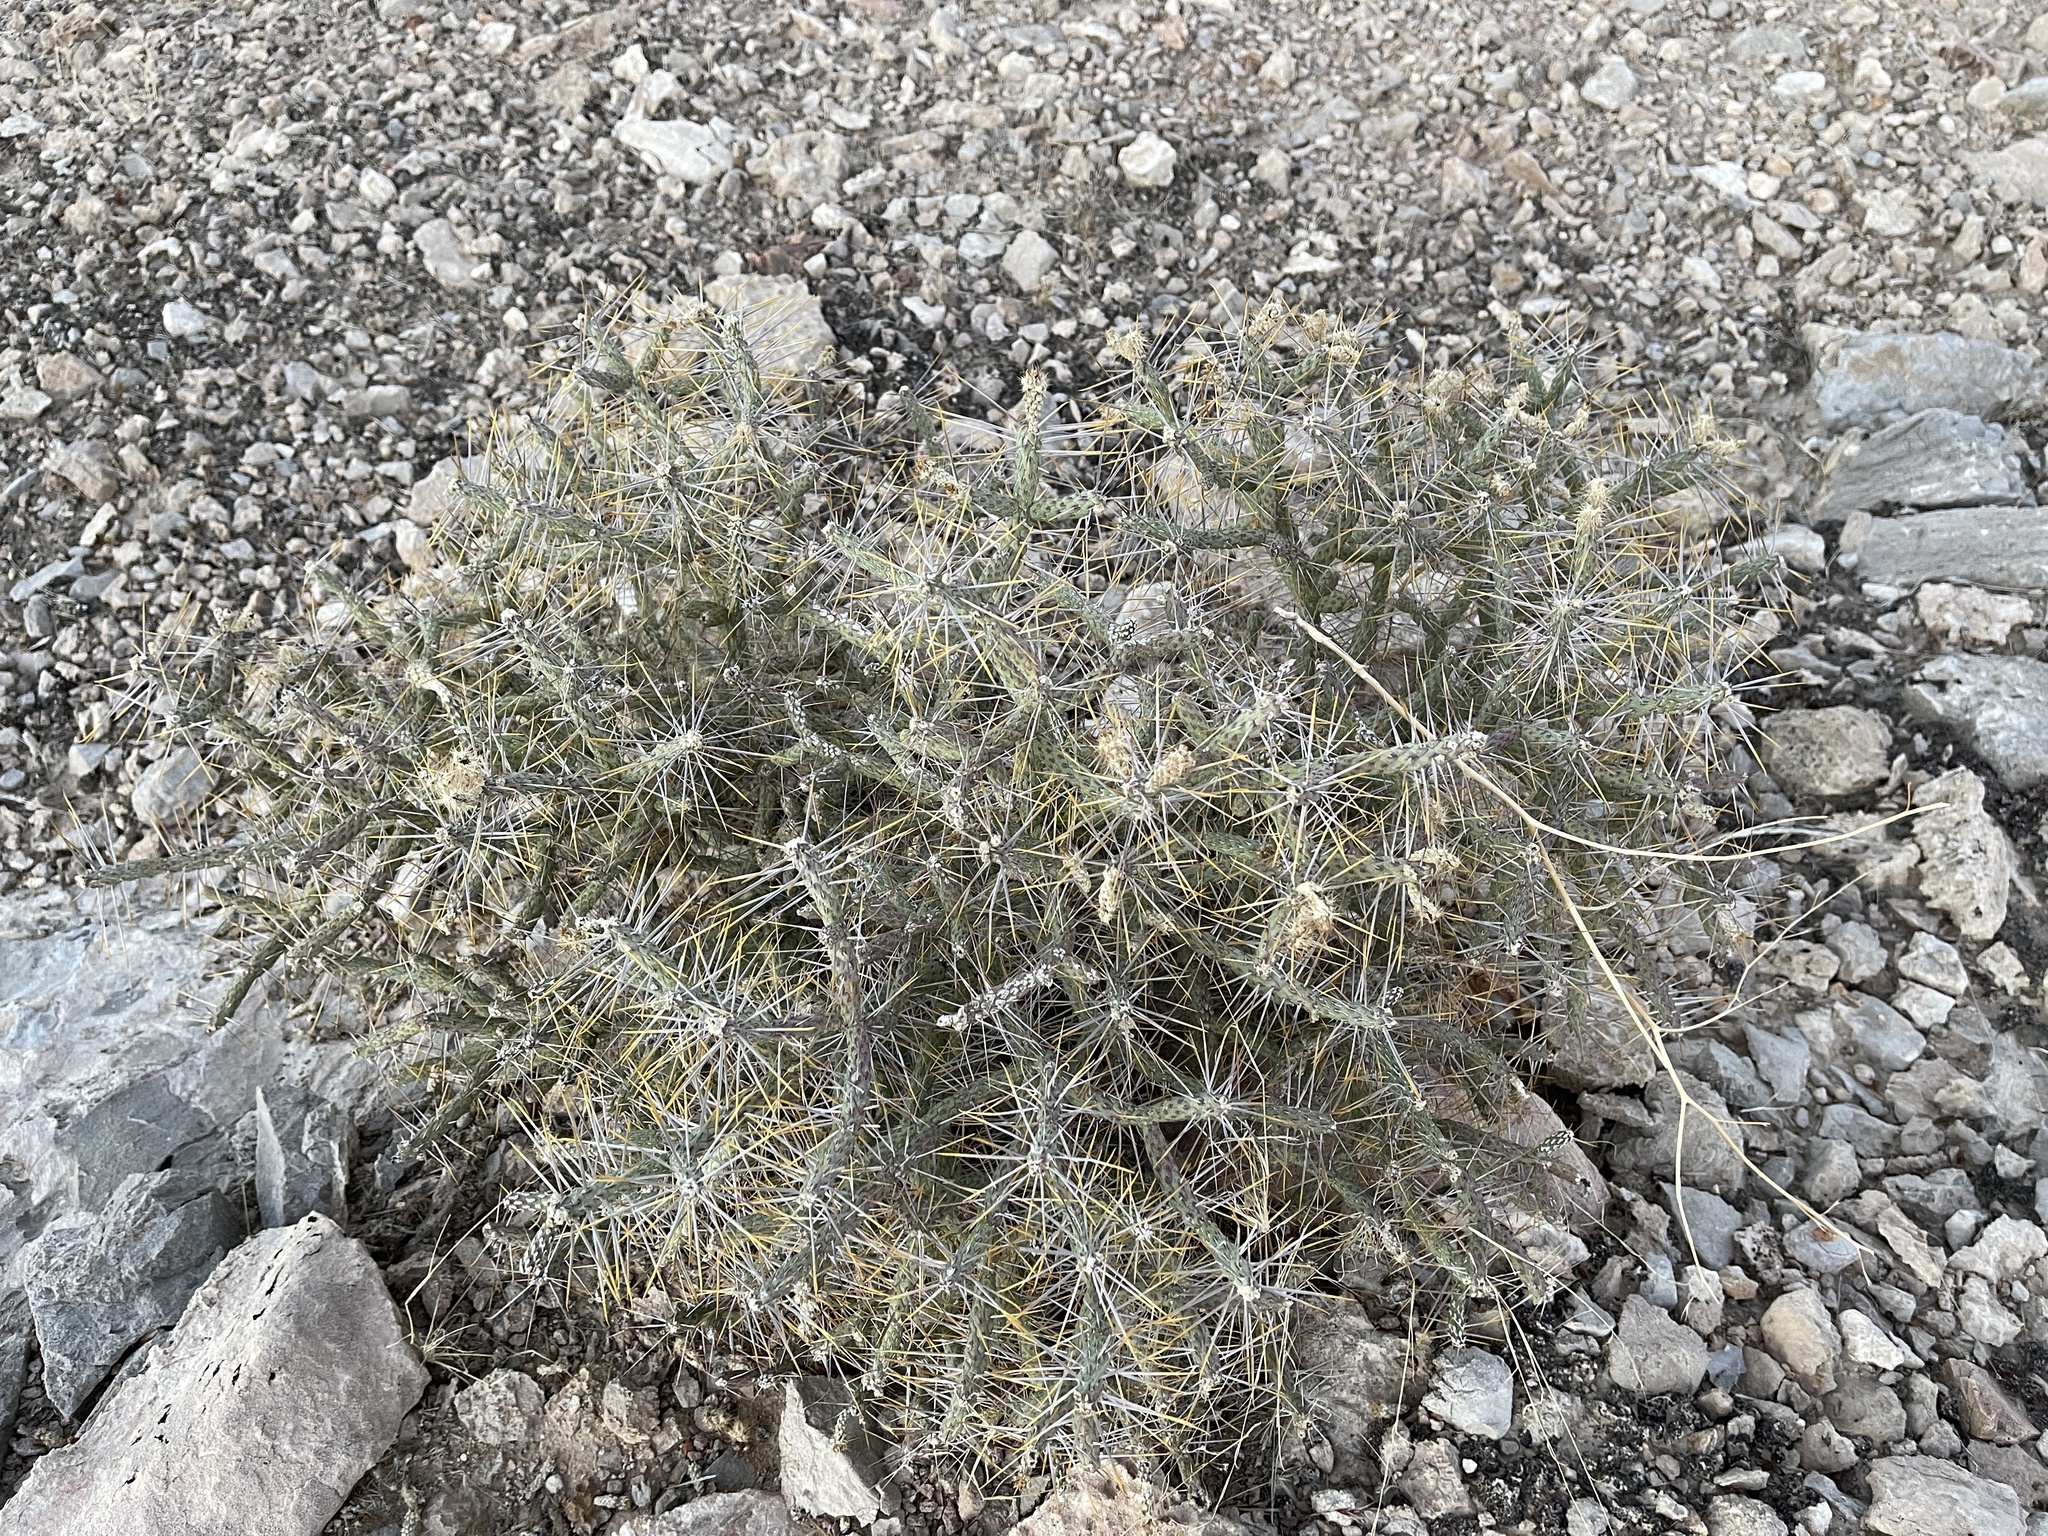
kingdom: Plantae
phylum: Tracheophyta
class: Magnoliopsida
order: Caryophyllales
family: Cactaceae
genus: Cylindropuntia
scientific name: Cylindropuntia ramosissima
